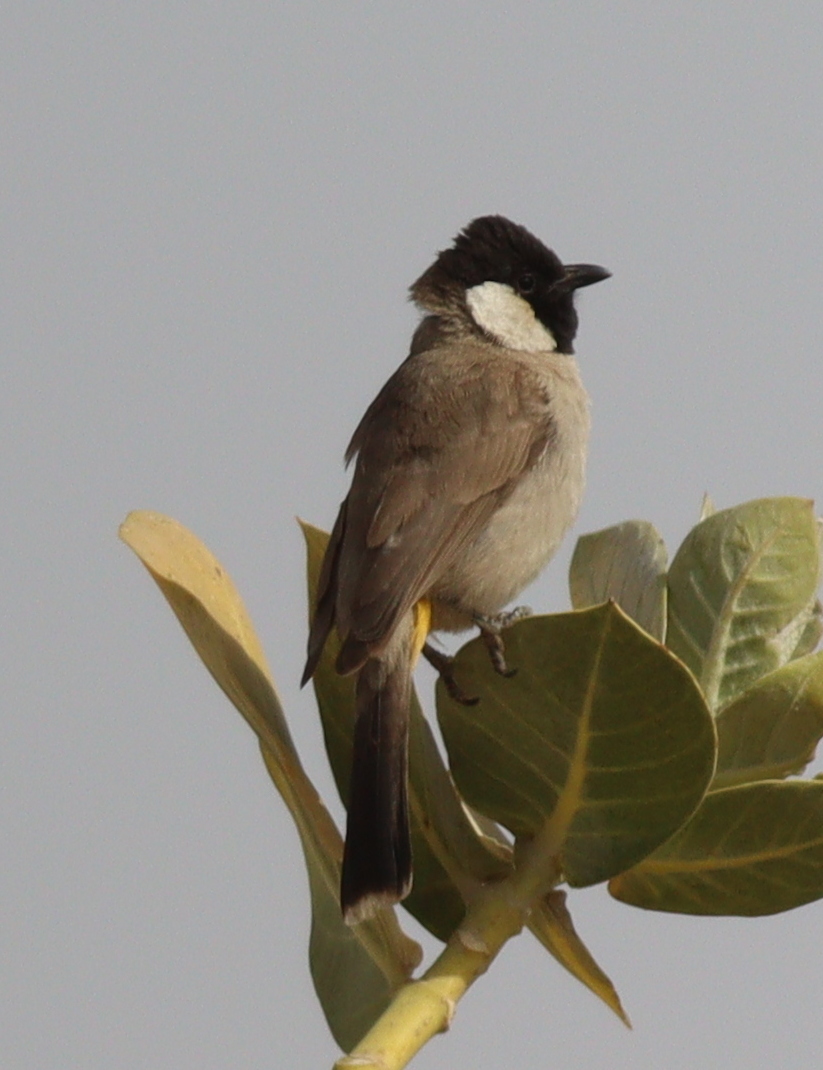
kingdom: Animalia
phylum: Chordata
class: Aves
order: Passeriformes
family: Pycnonotidae
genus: Pycnonotus
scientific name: Pycnonotus leucotis
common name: White-eared bulbul
